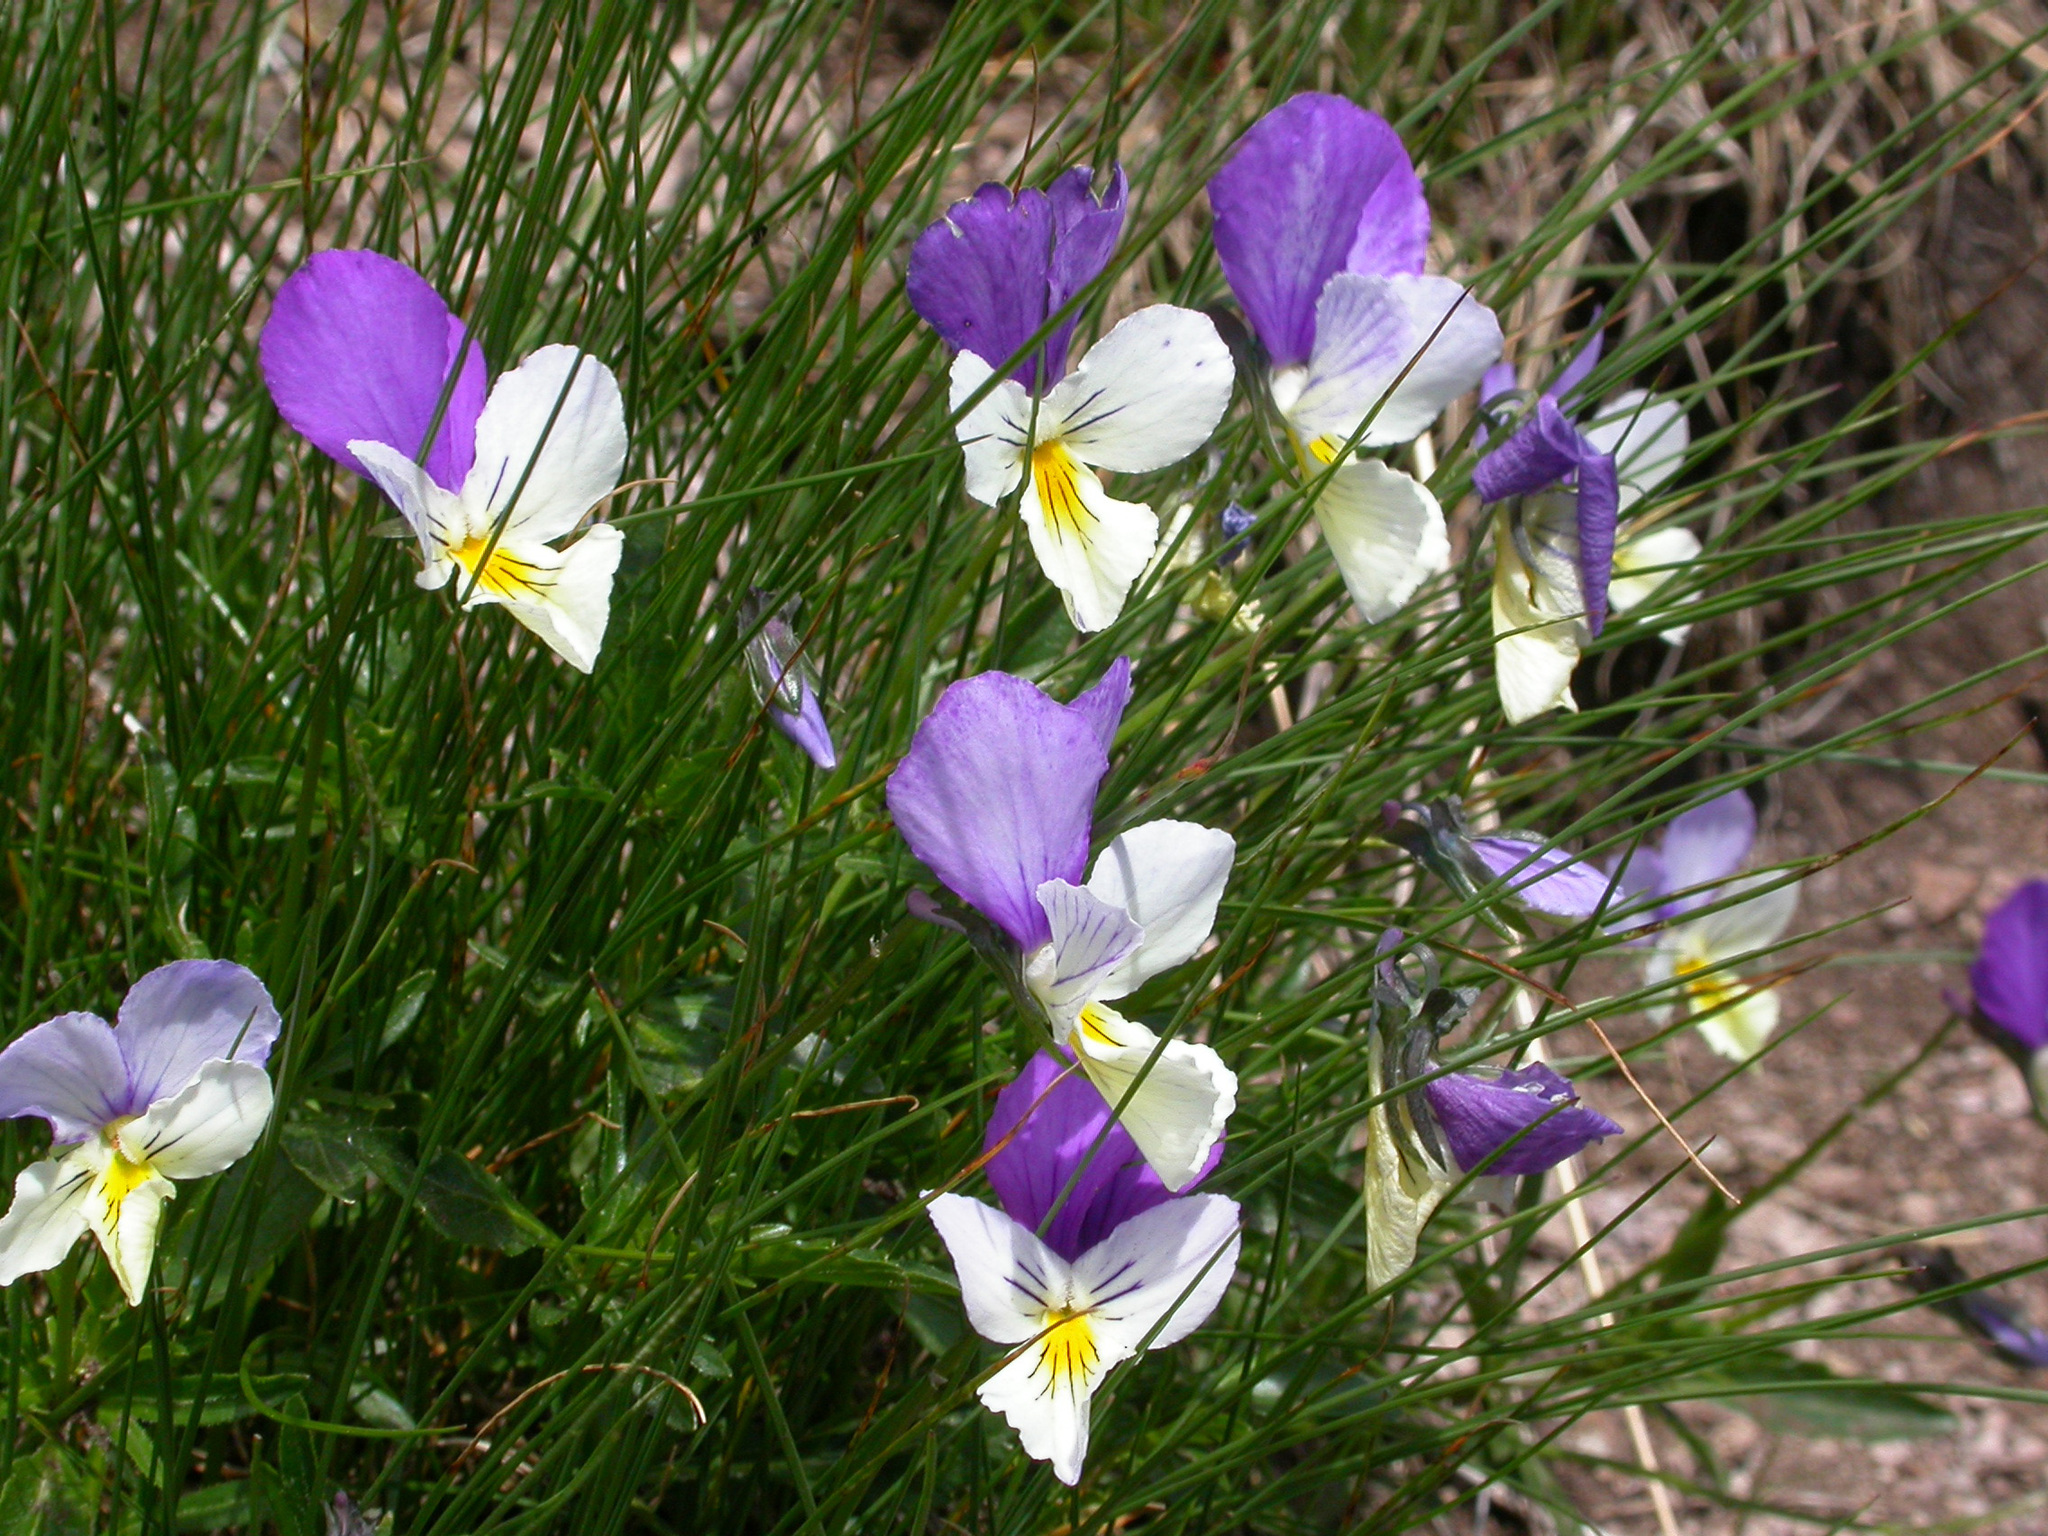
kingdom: Plantae
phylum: Tracheophyta
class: Magnoliopsida
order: Malpighiales
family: Violaceae
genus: Viola
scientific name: Viola lutea
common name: Mountain pansy
